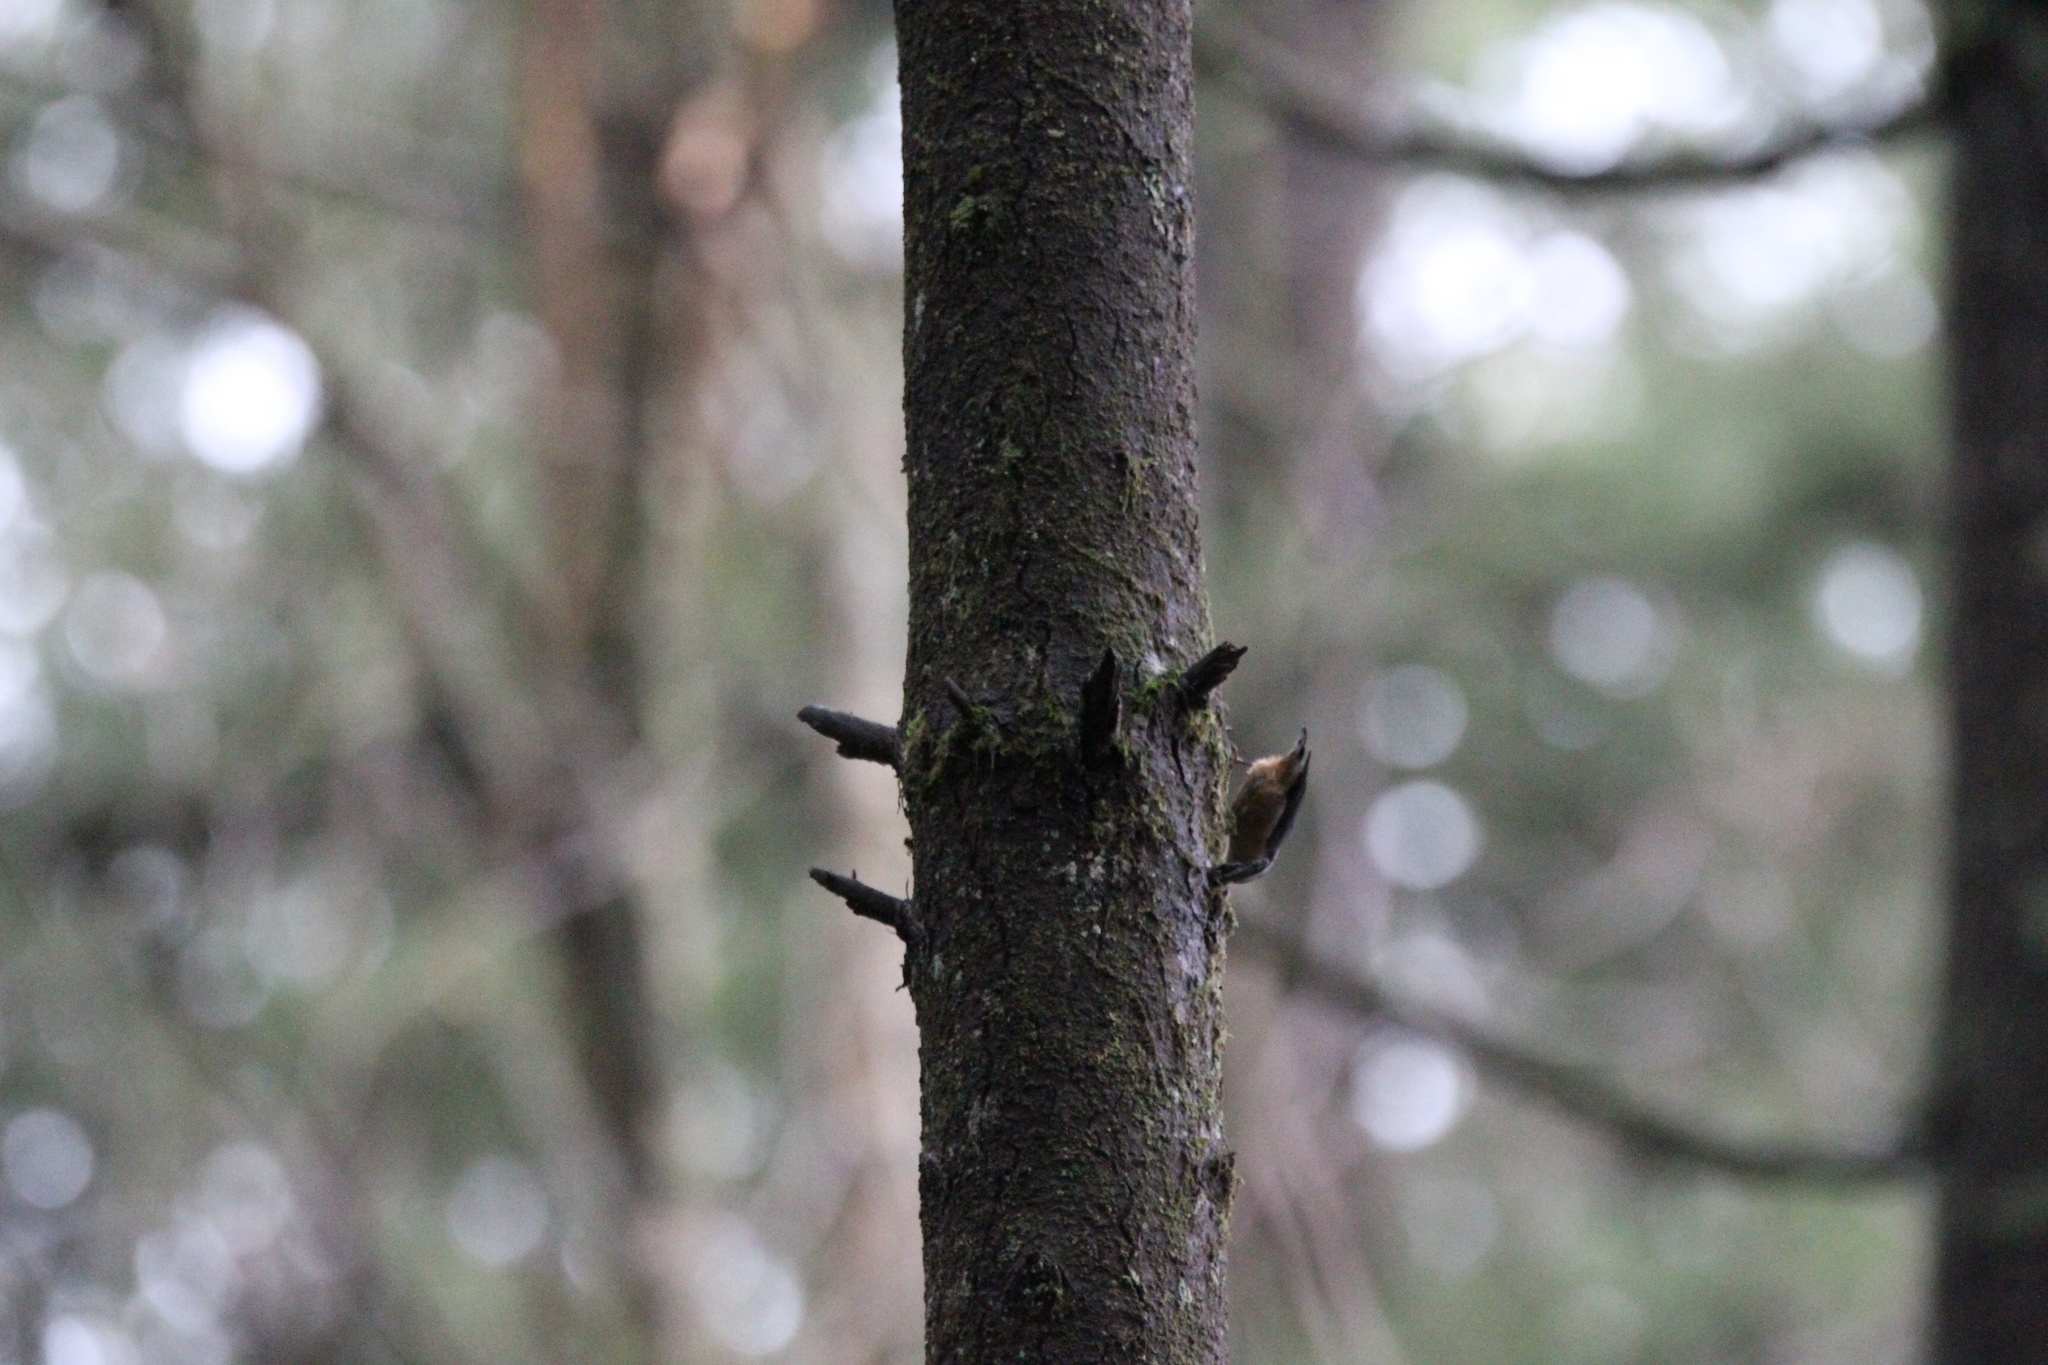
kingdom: Animalia
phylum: Chordata
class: Aves
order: Passeriformes
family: Sittidae
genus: Sitta
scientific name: Sitta canadensis
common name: Red-breasted nuthatch
